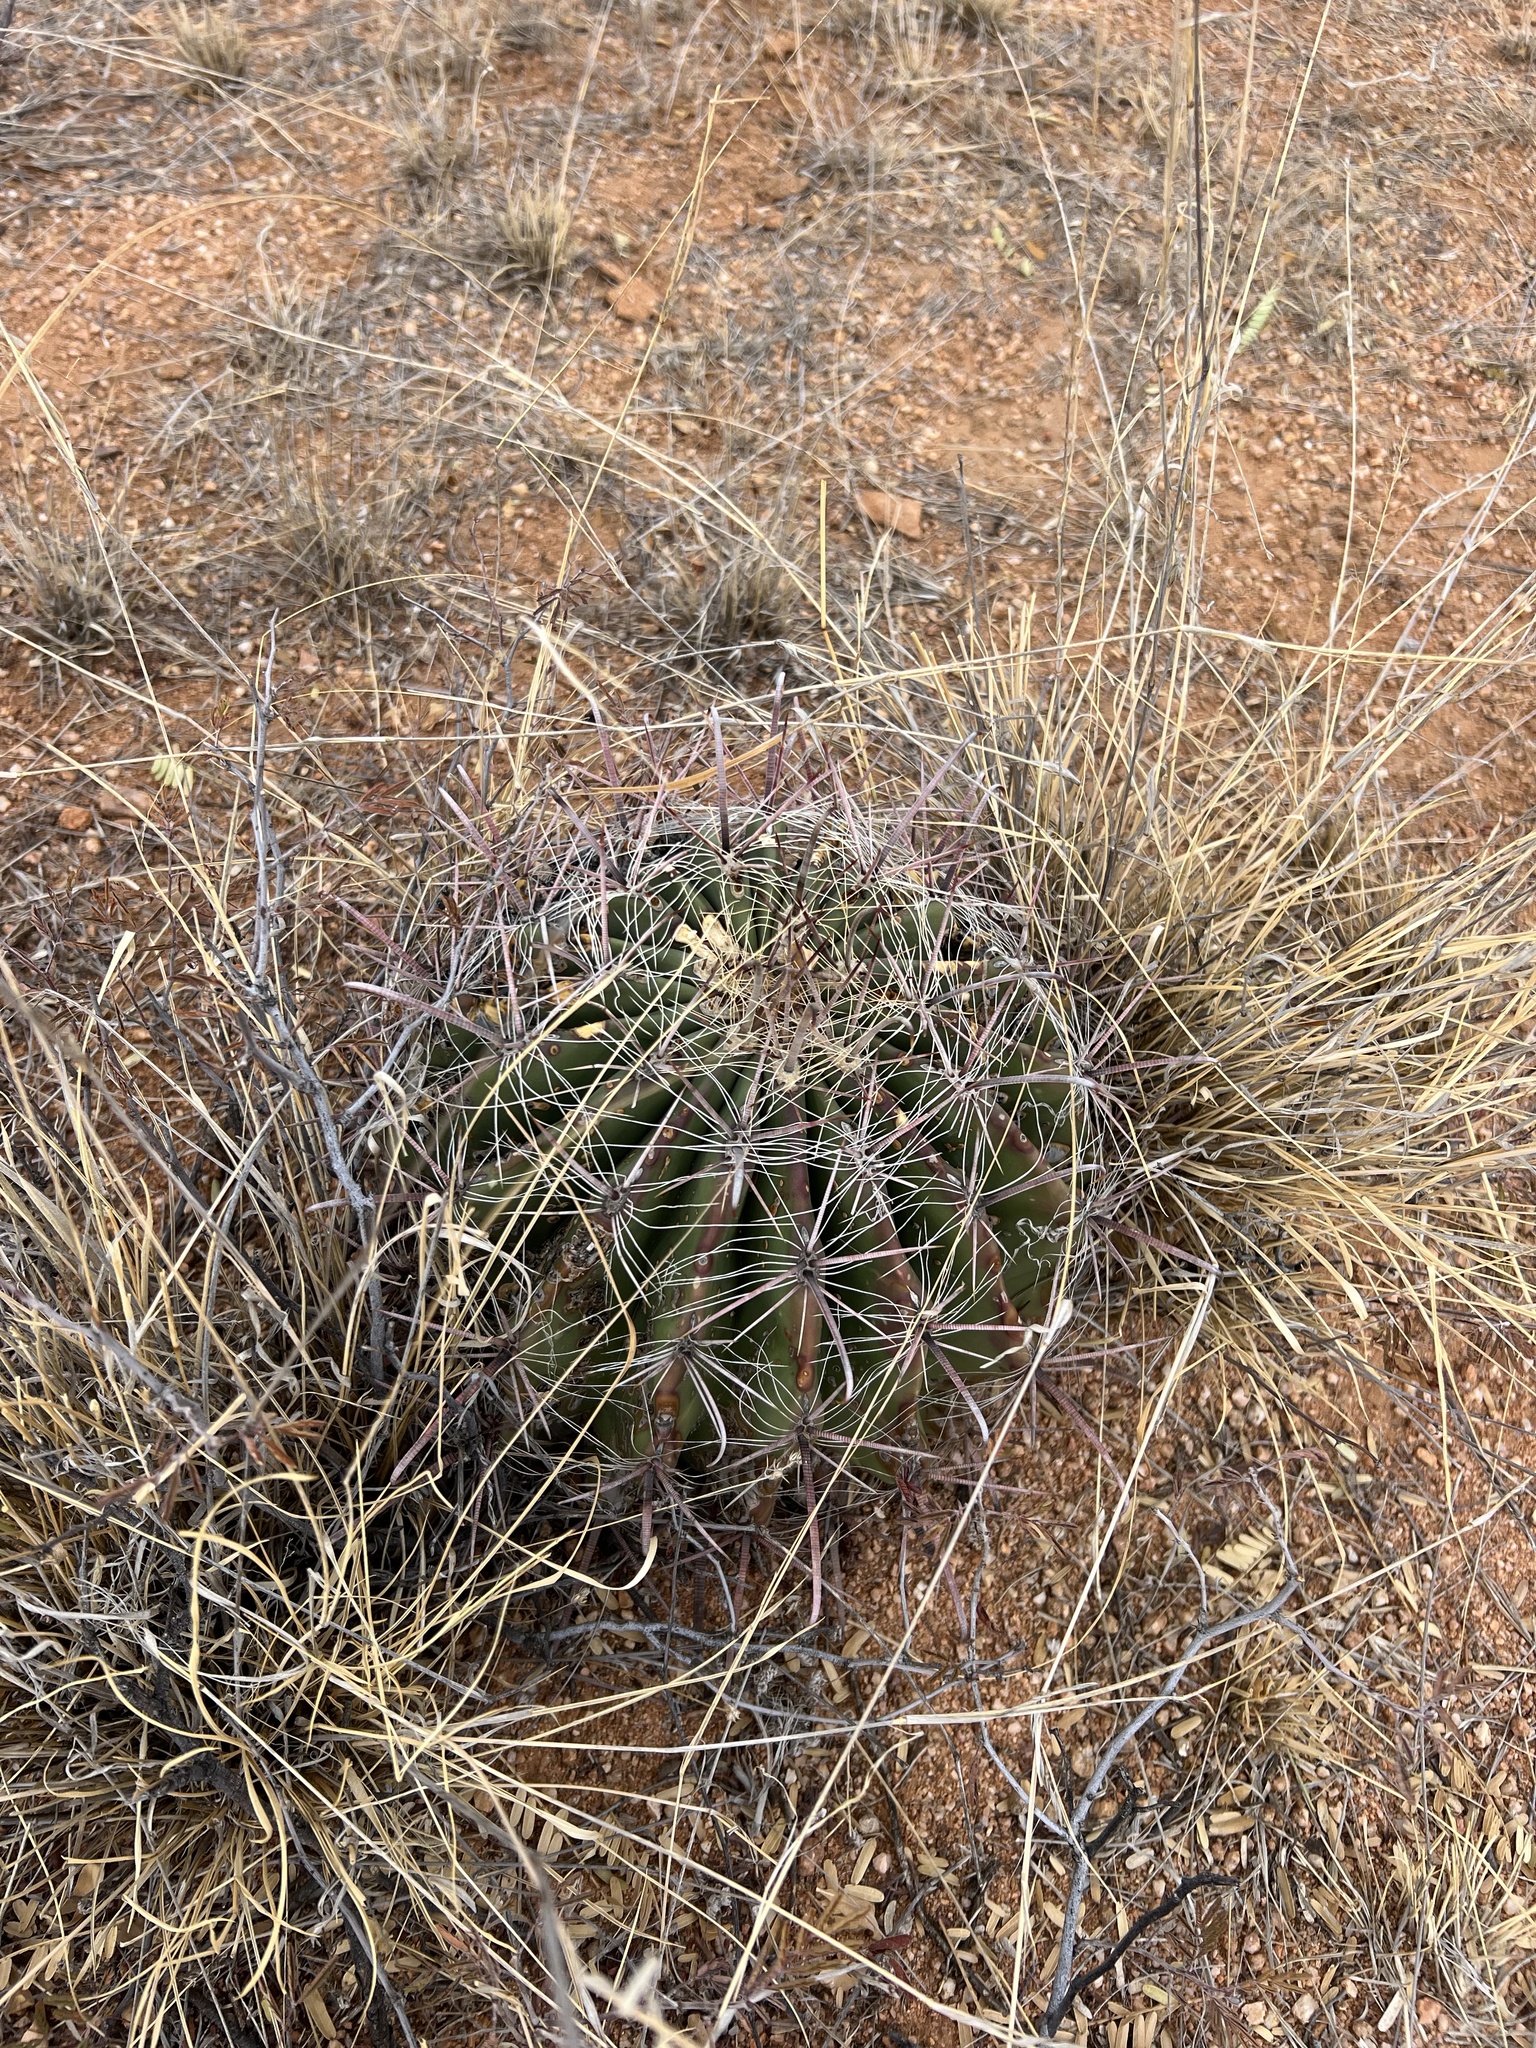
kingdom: Plantae
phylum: Tracheophyta
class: Magnoliopsida
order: Caryophyllales
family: Cactaceae
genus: Ferocactus
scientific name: Ferocactus wislizeni
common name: Candy barrel cactus
